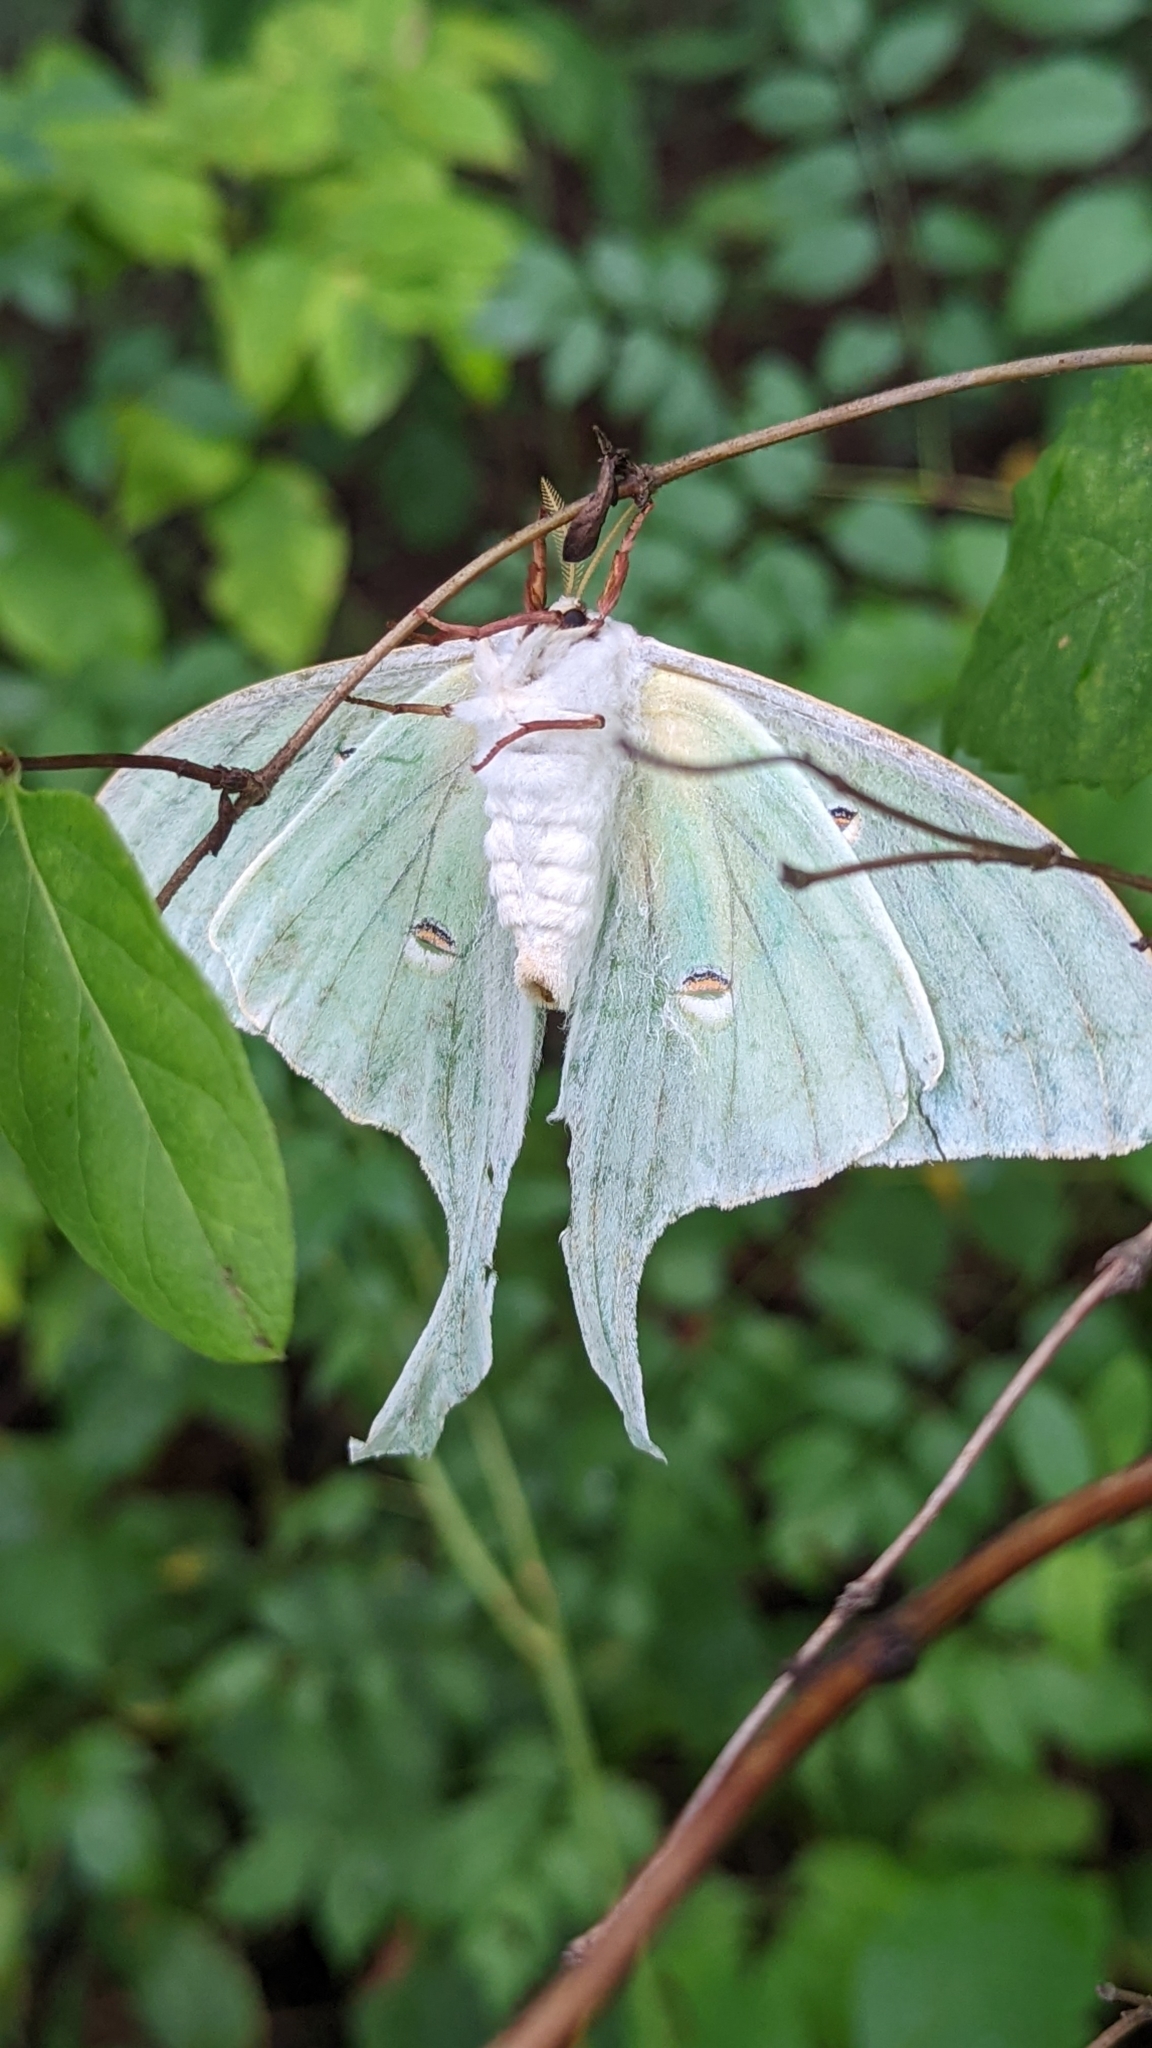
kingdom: Animalia
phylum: Arthropoda
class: Insecta
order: Lepidoptera
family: Saturniidae
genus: Actias
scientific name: Actias luna
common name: Luna moth
